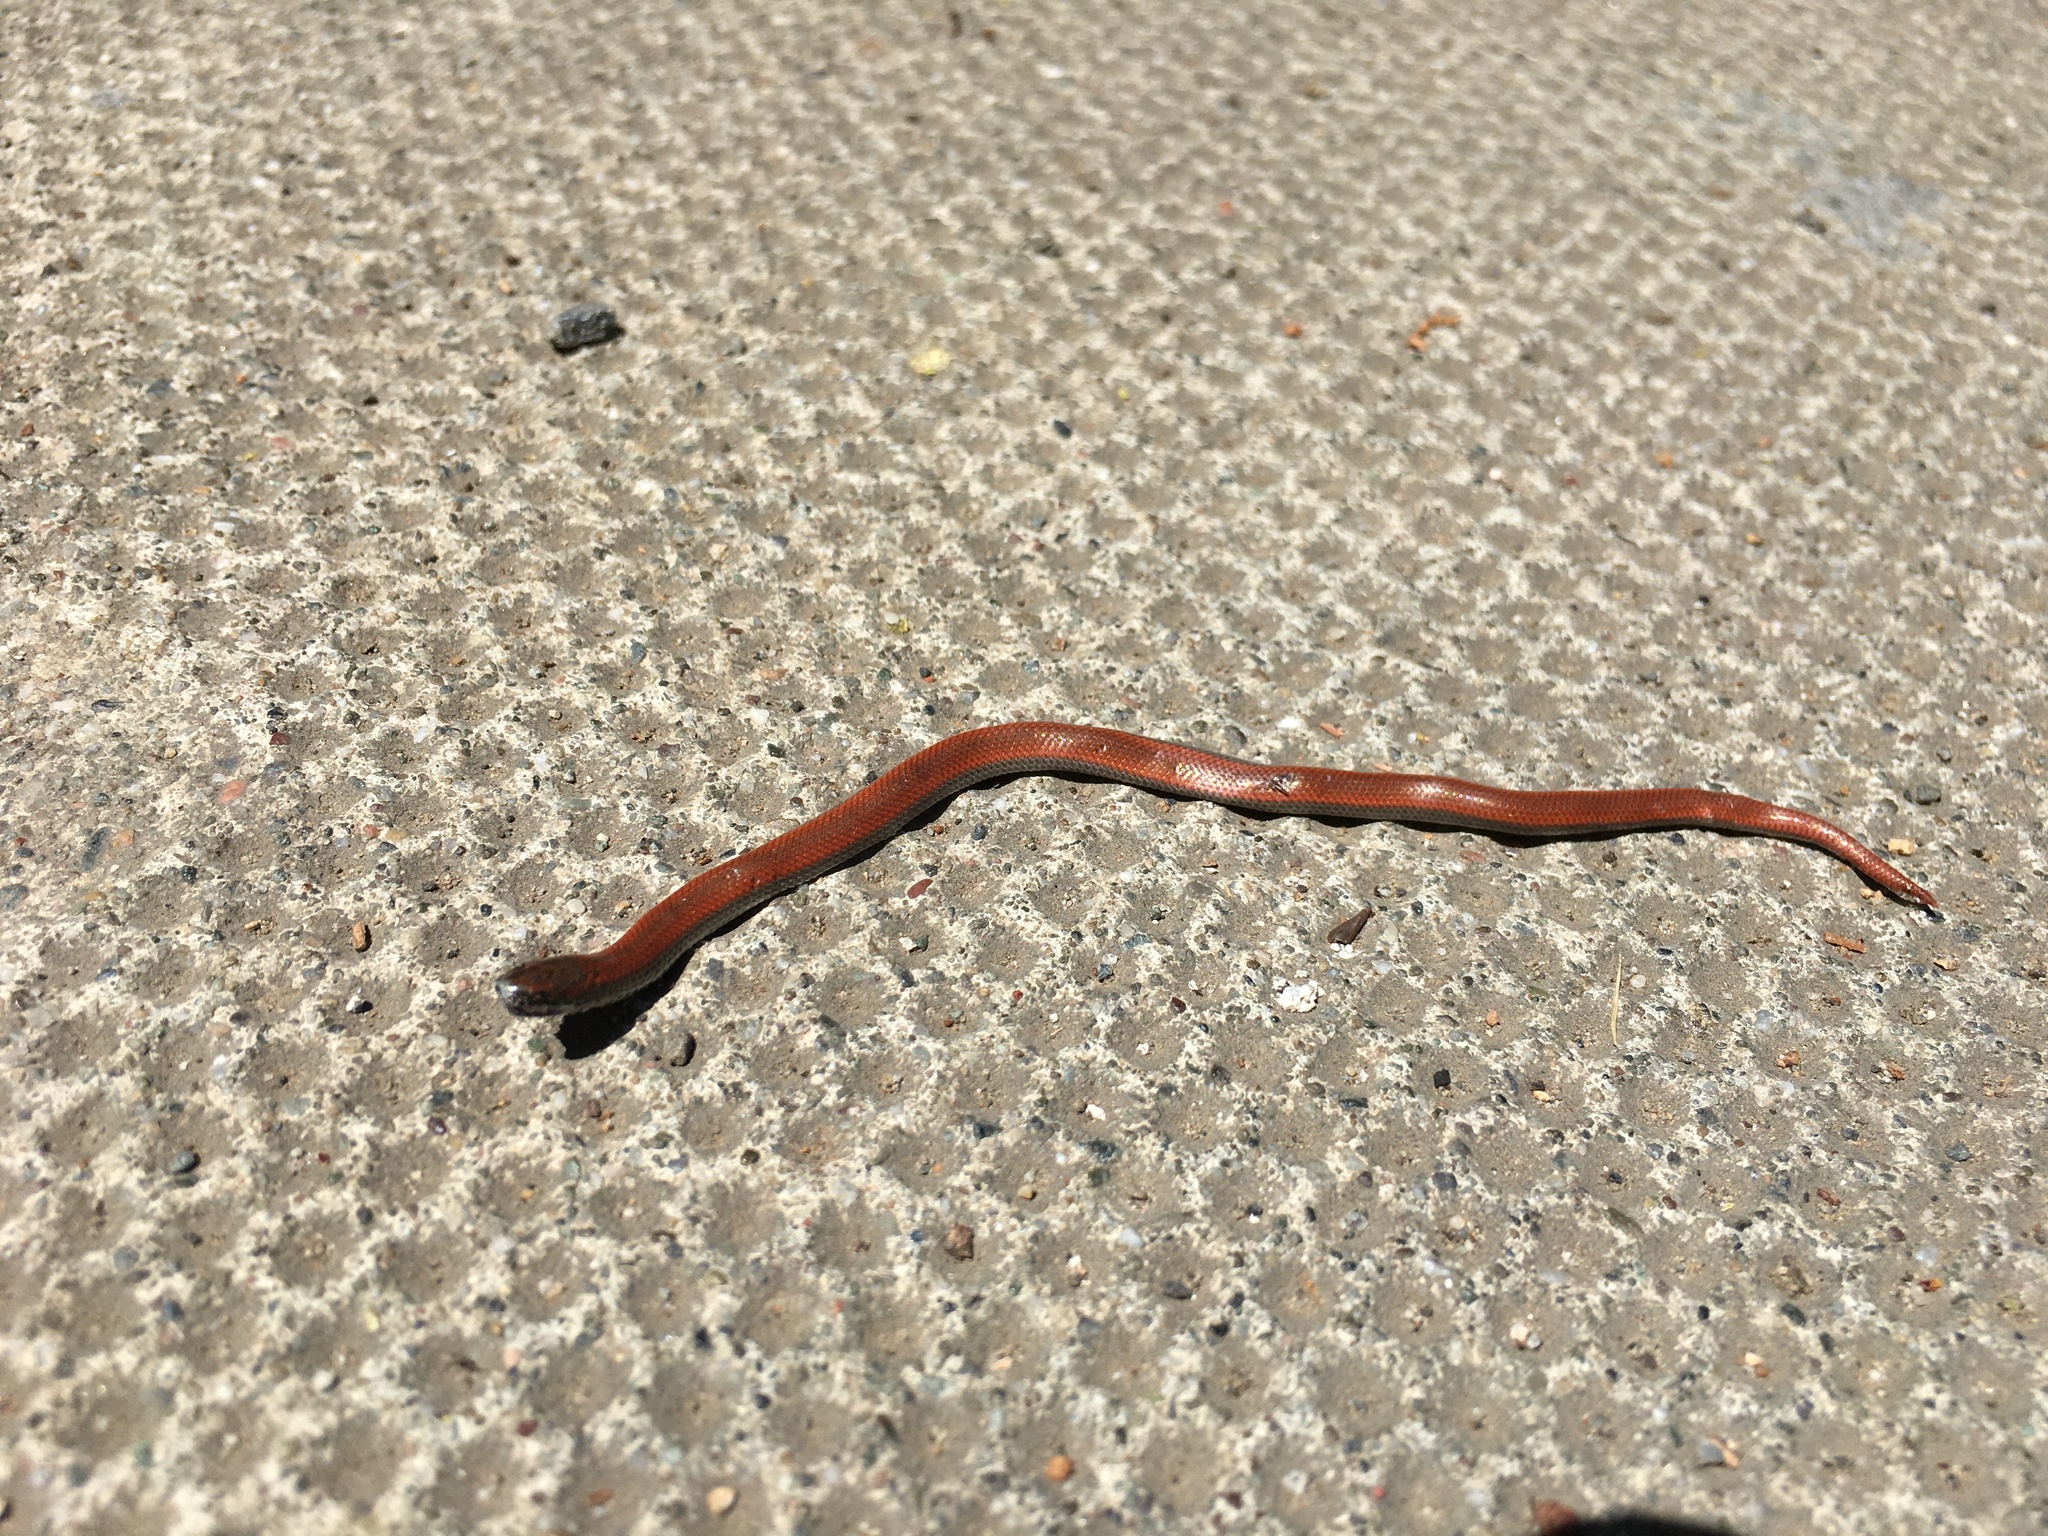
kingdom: Animalia
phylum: Chordata
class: Squamata
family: Colubridae
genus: Contia
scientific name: Contia tenuis
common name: Sharptail snake
